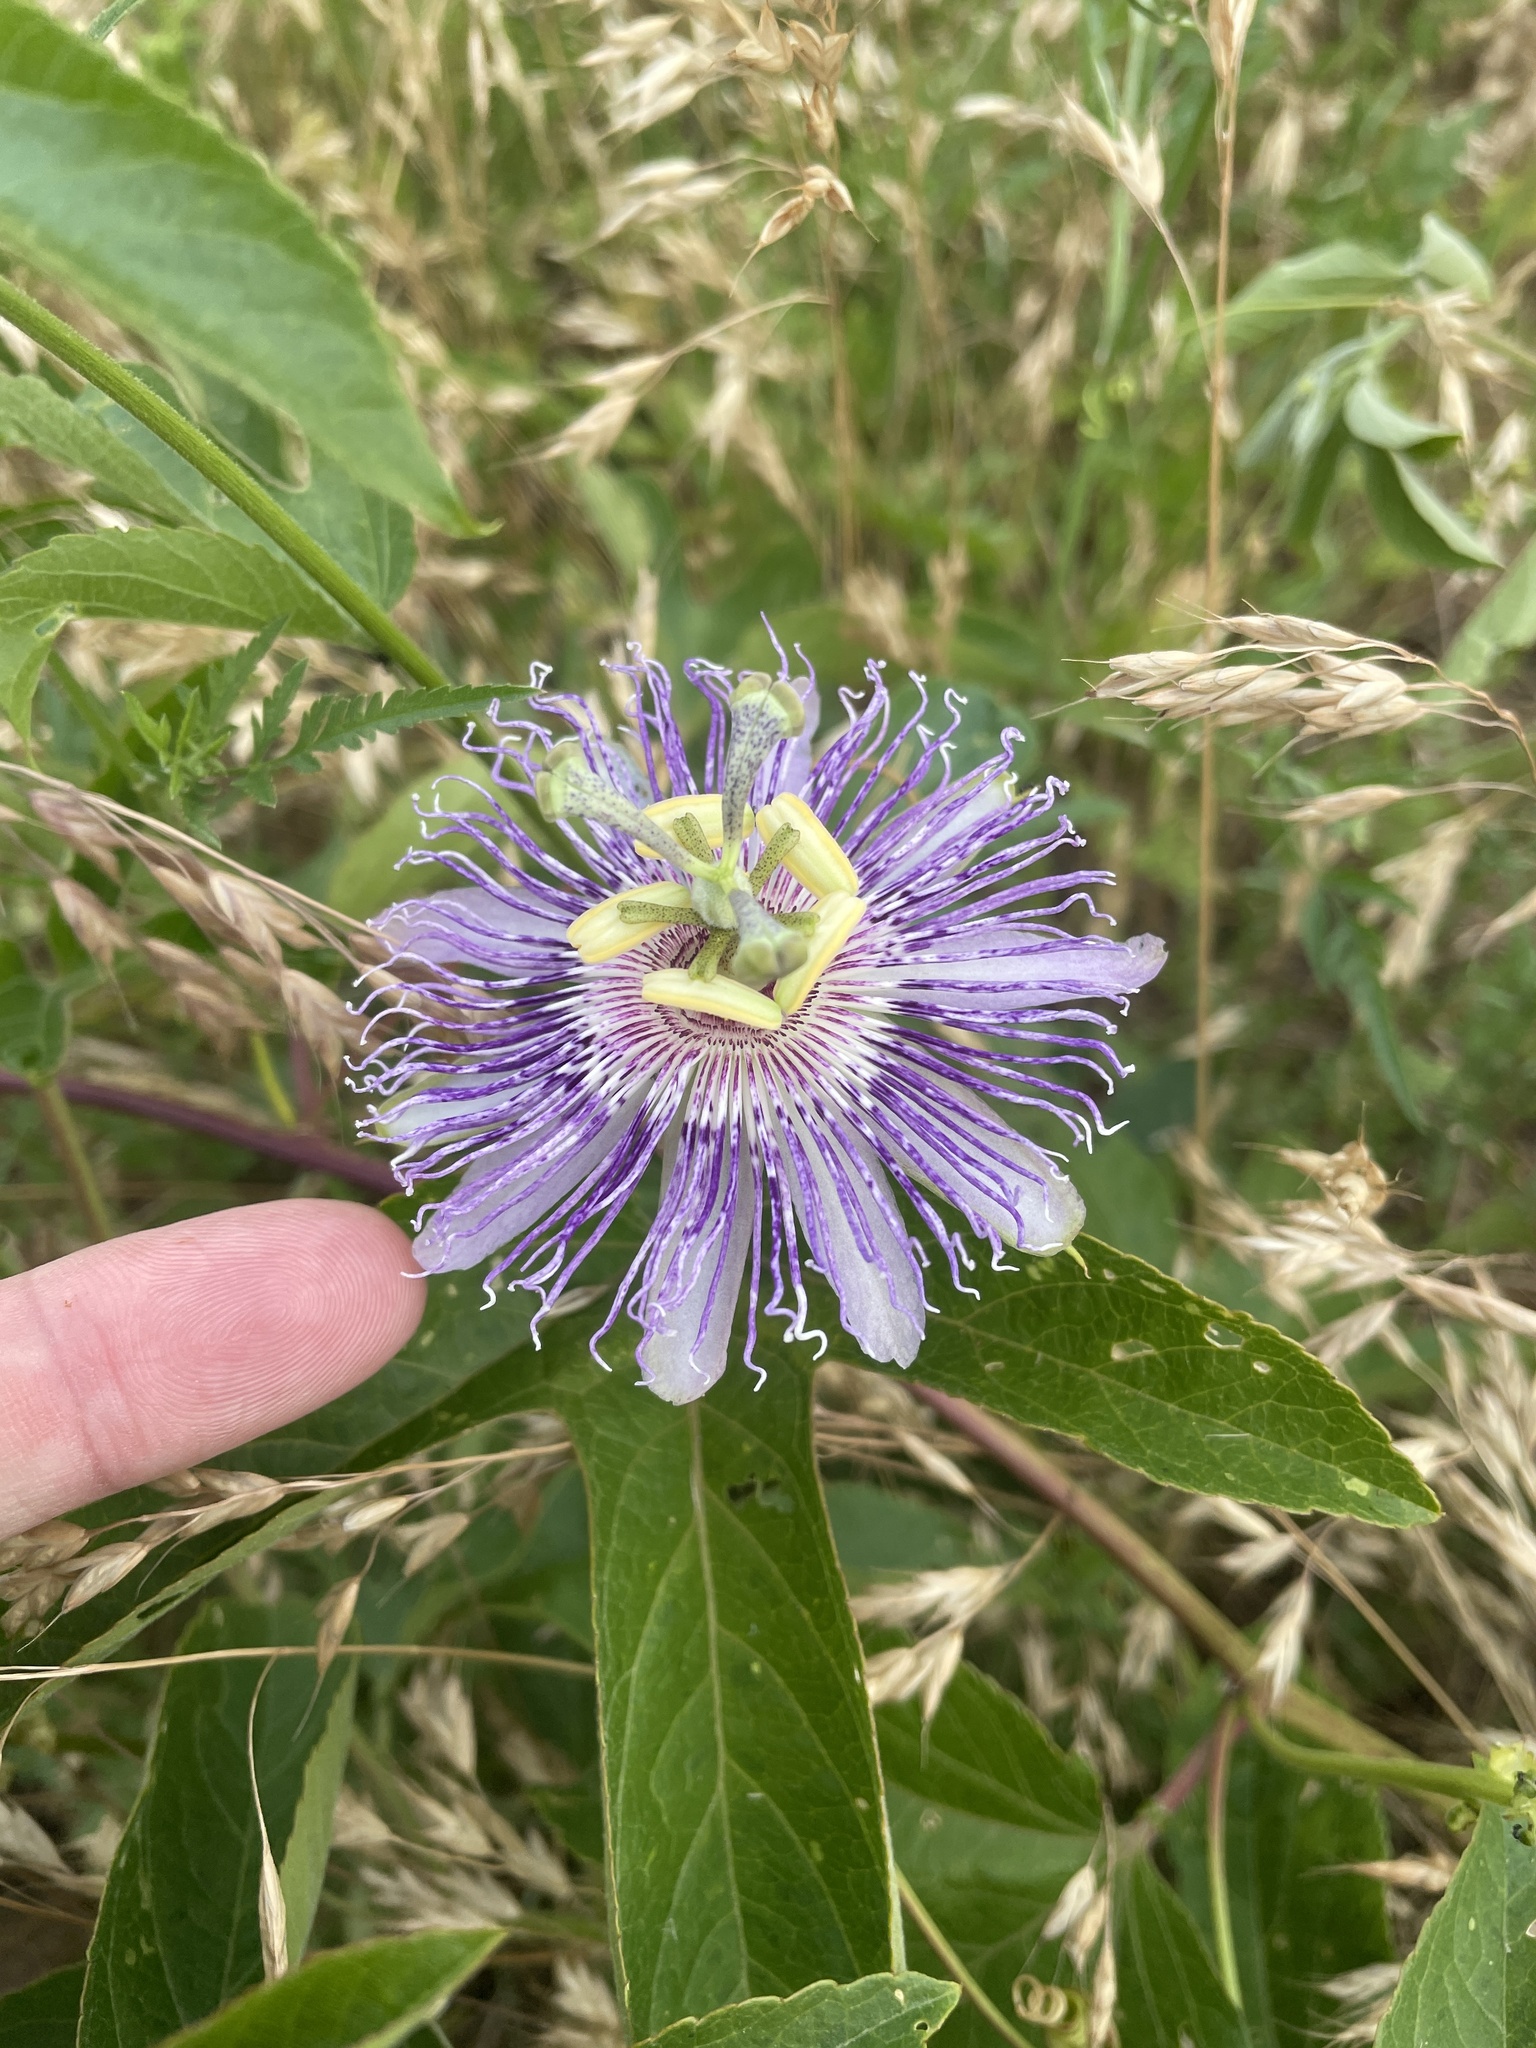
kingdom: Plantae
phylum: Tracheophyta
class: Magnoliopsida
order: Malpighiales
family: Passifloraceae
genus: Passiflora
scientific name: Passiflora incarnata
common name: Apricot-vine
